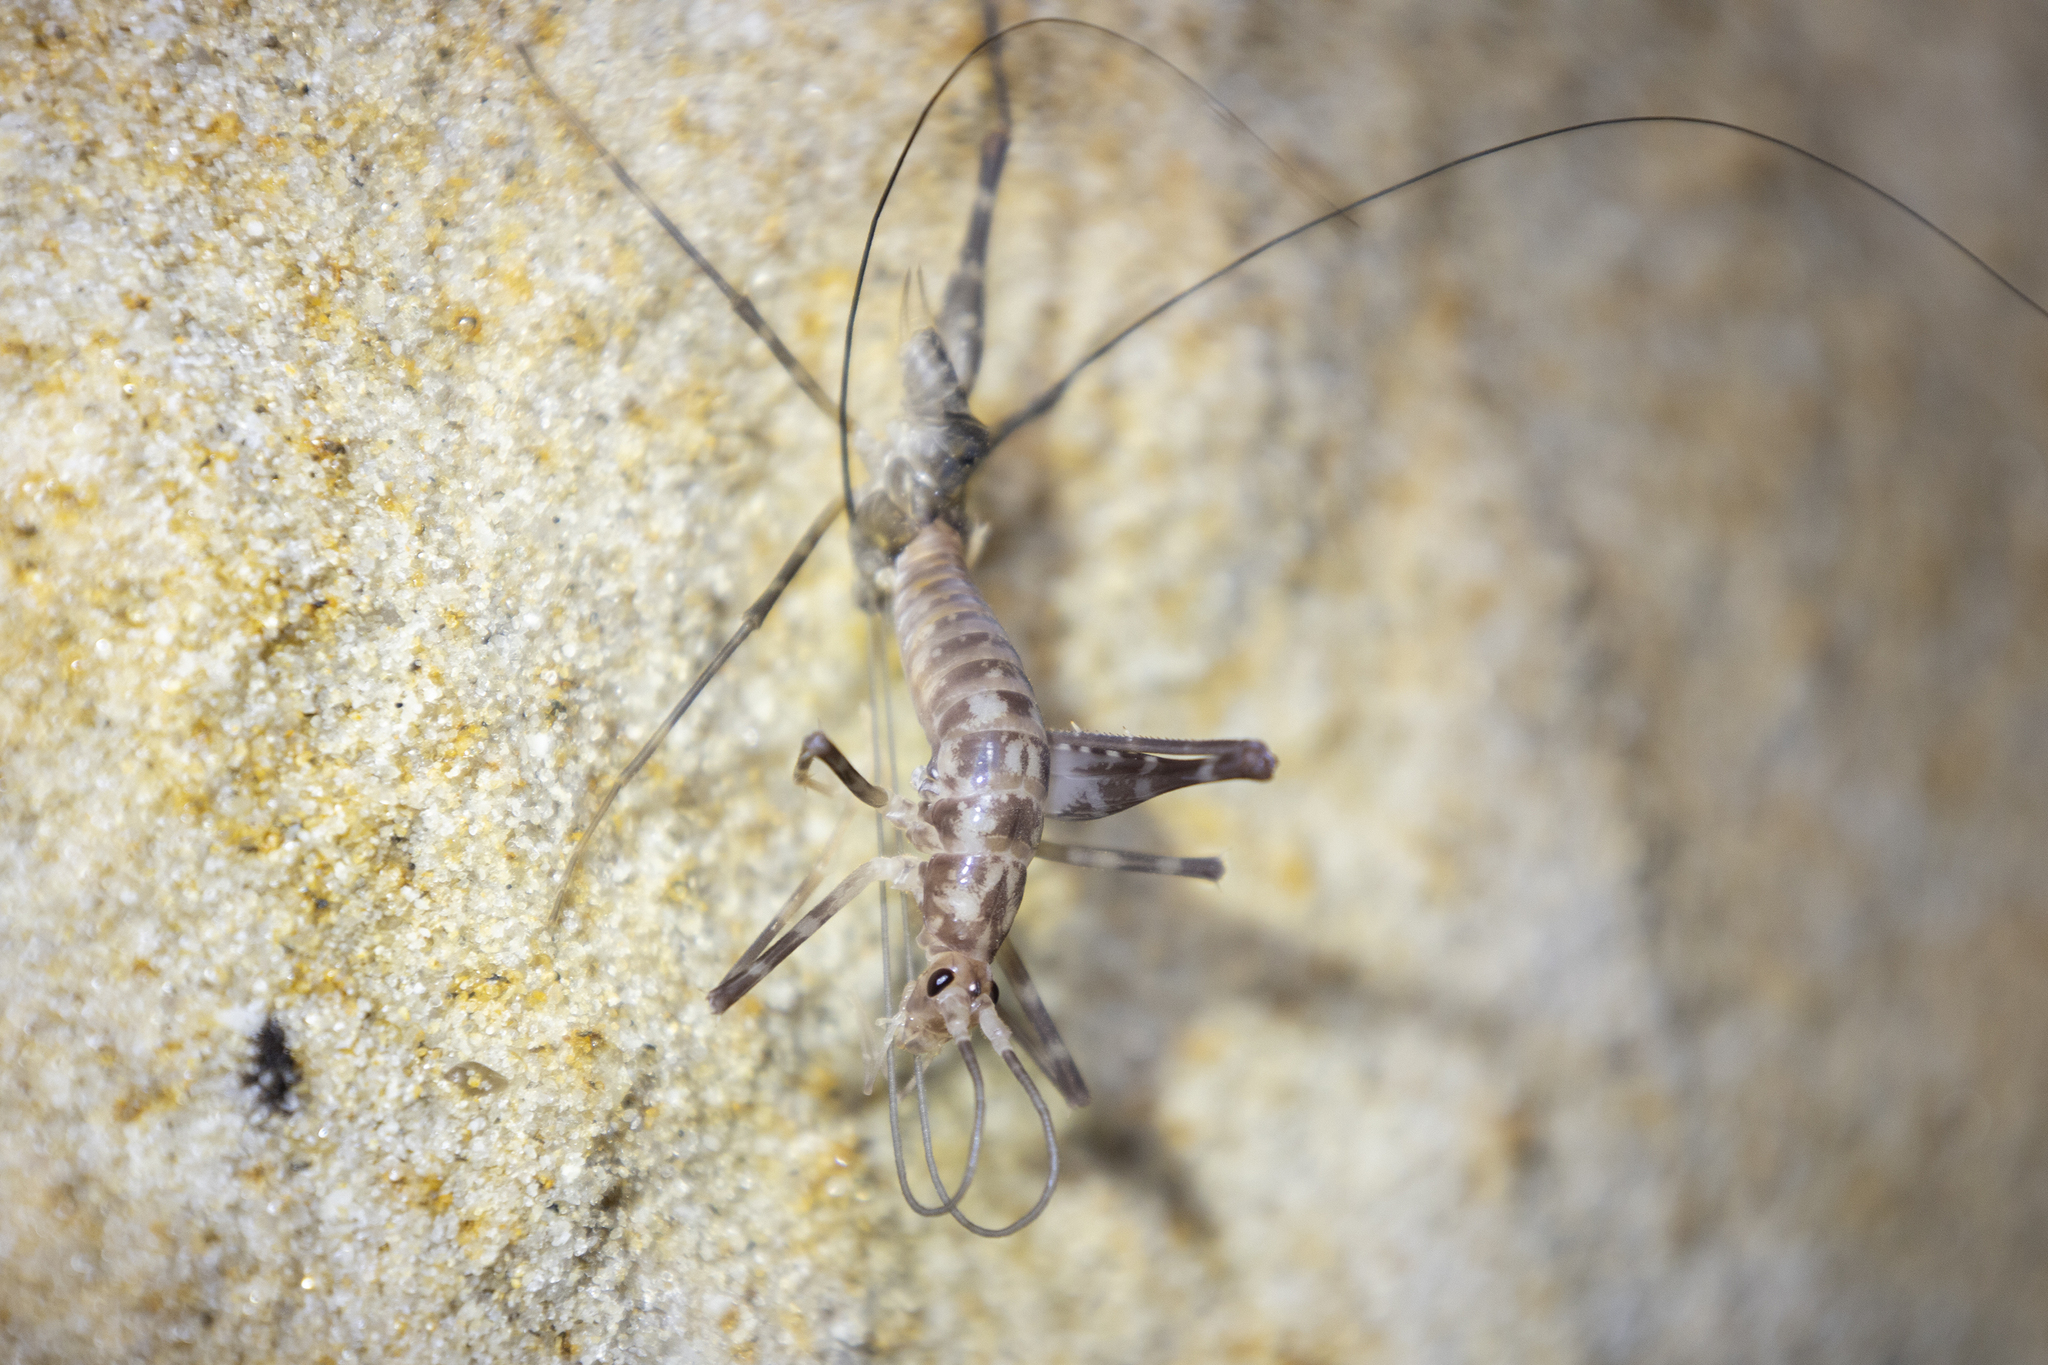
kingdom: Animalia
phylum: Arthropoda
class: Insecta
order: Orthoptera
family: Rhaphidophoridae
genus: Miotopus
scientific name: Miotopus richardsae
